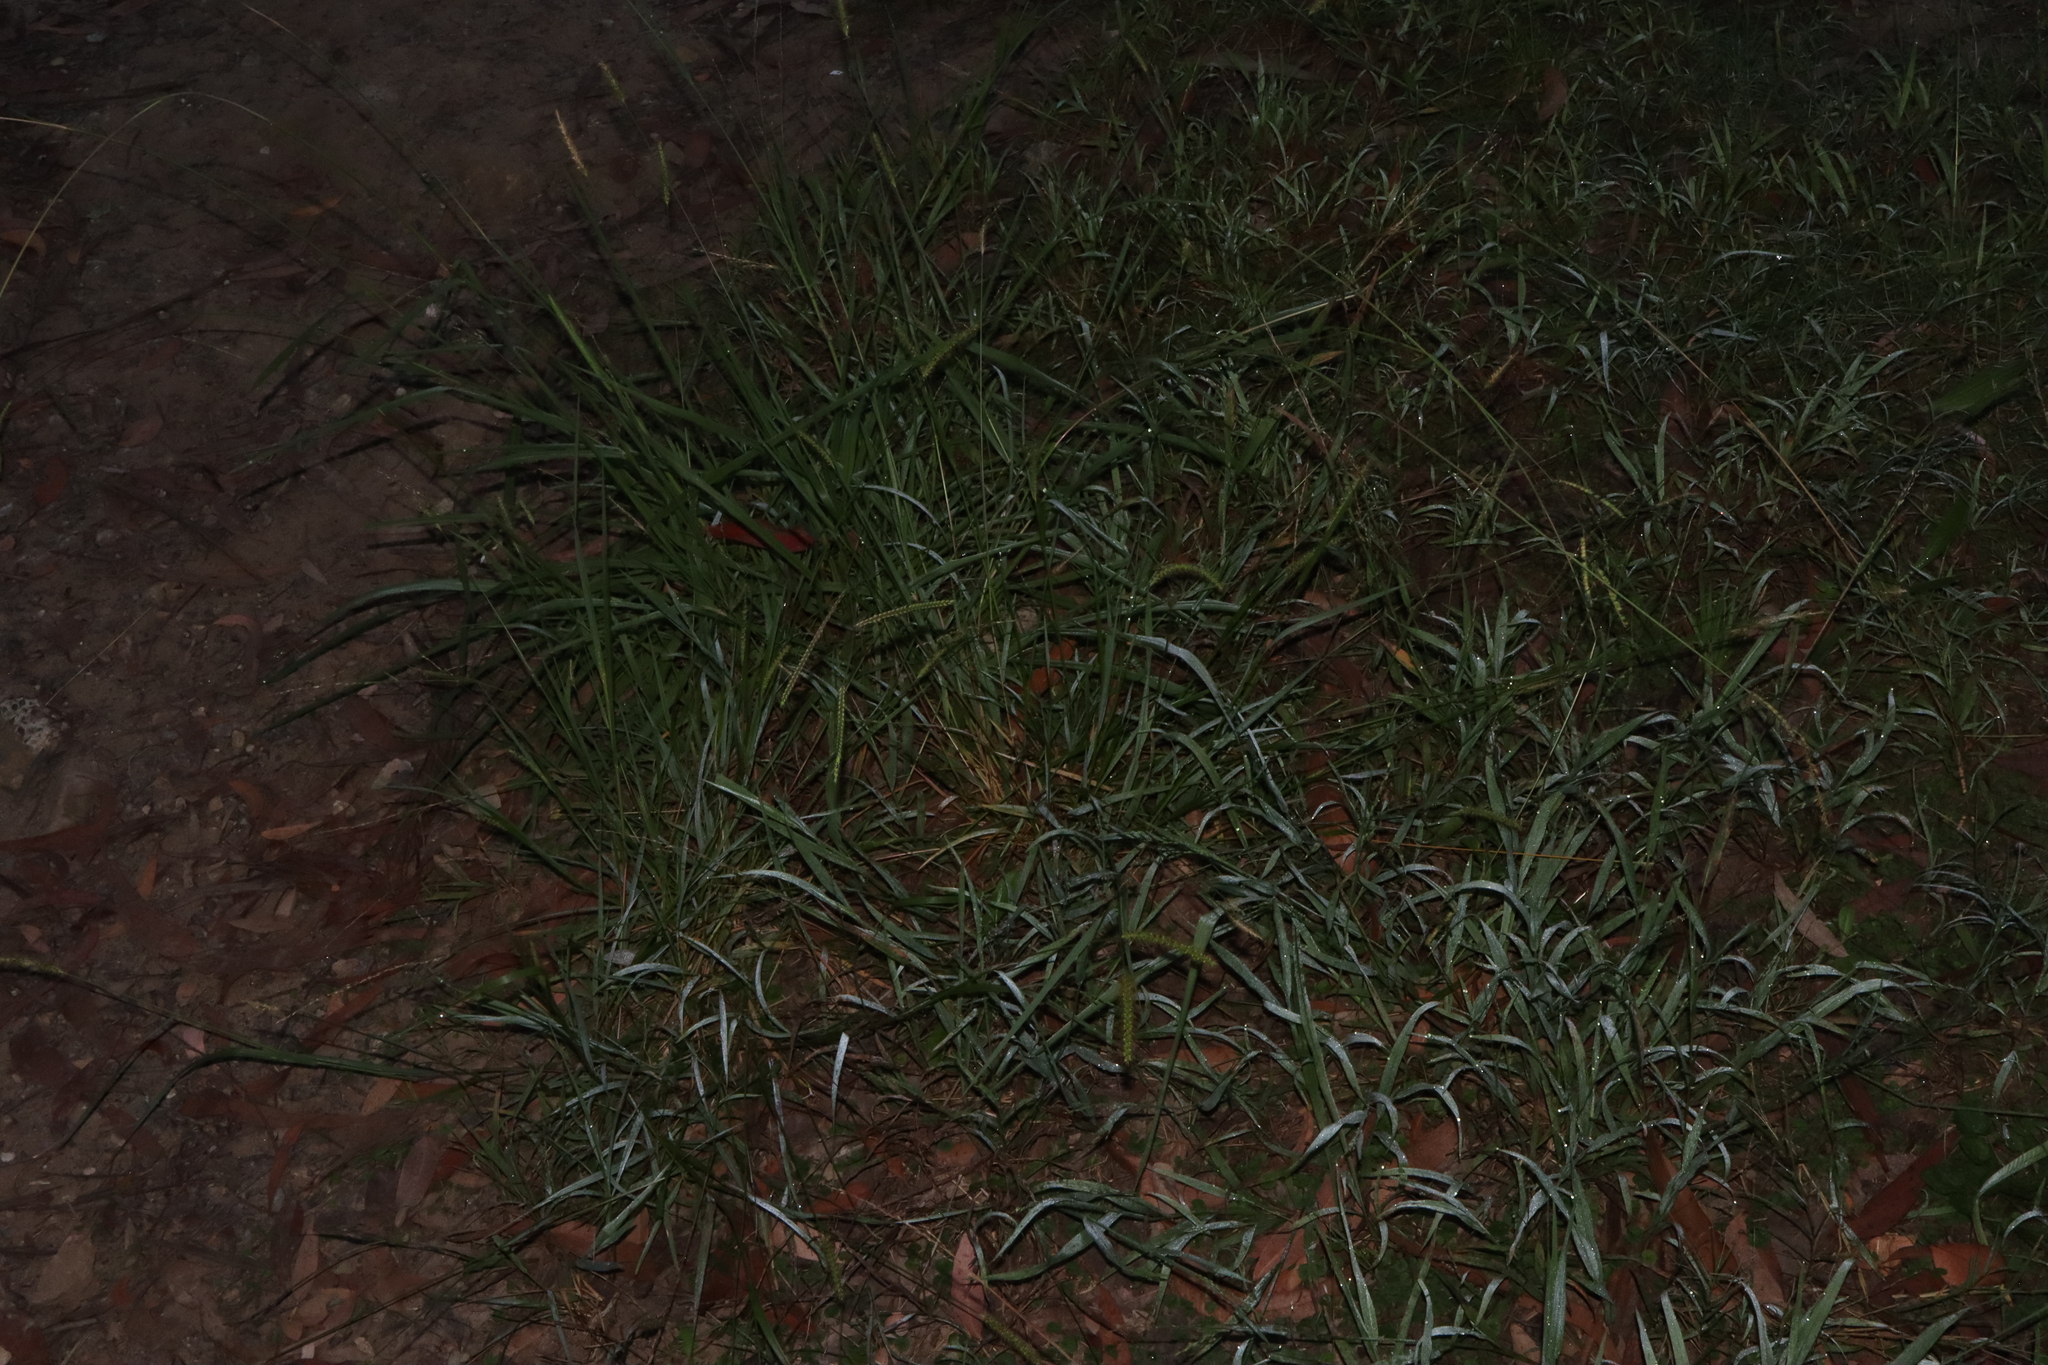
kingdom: Plantae
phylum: Tracheophyta
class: Liliopsida
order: Poales
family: Poaceae
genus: Paspalum
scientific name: Paspalum dilatatum
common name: Dallisgrass
